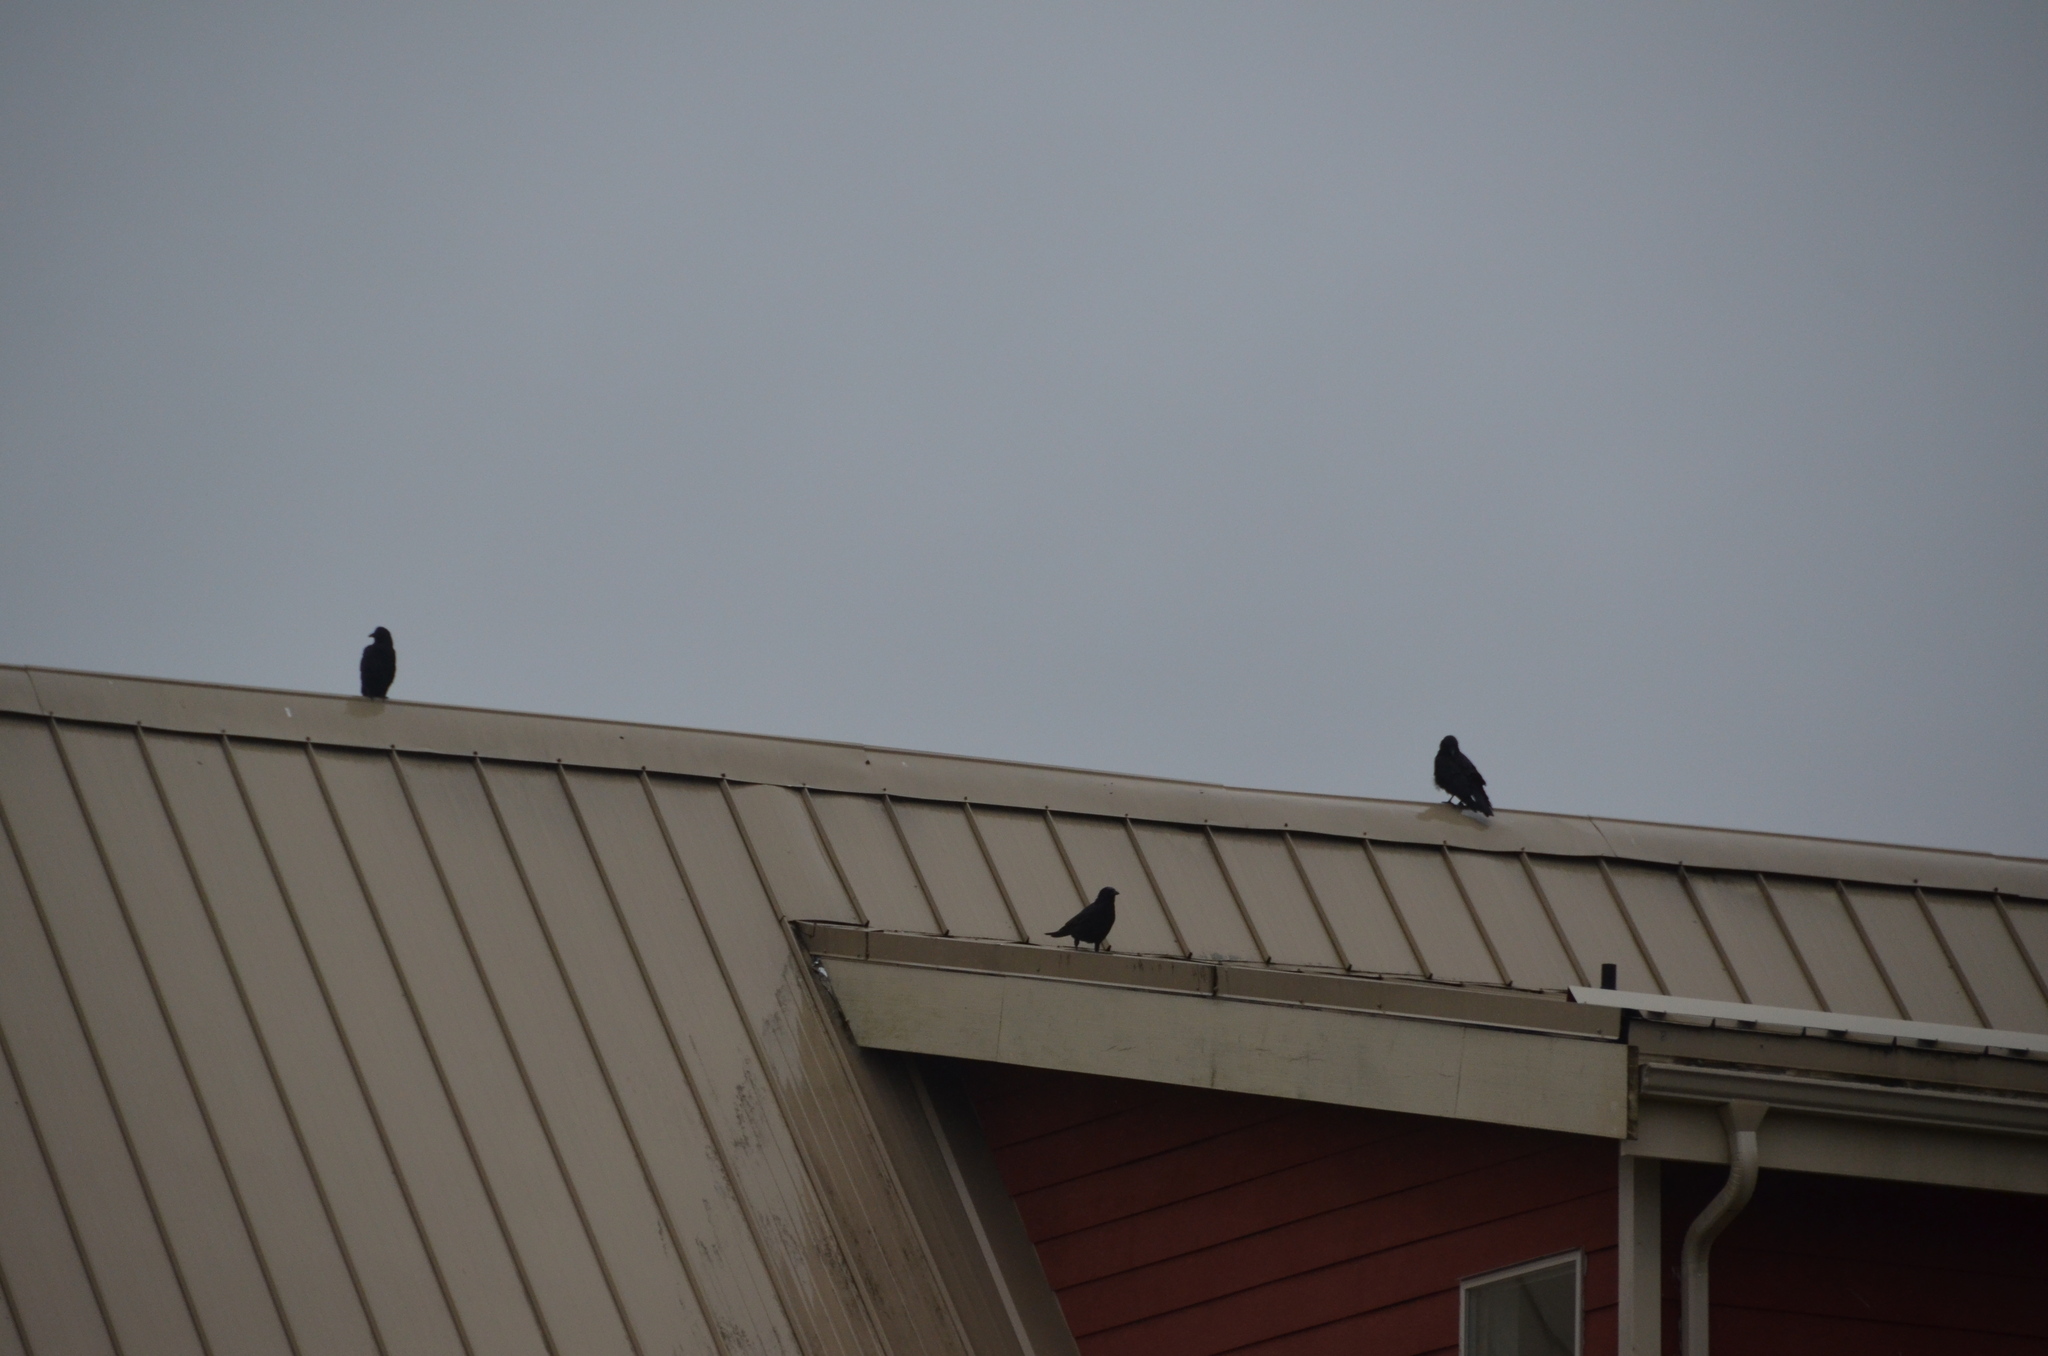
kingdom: Animalia
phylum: Chordata
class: Aves
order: Passeriformes
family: Corvidae
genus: Corvus
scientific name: Corvus brachyrhynchos
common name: American crow
